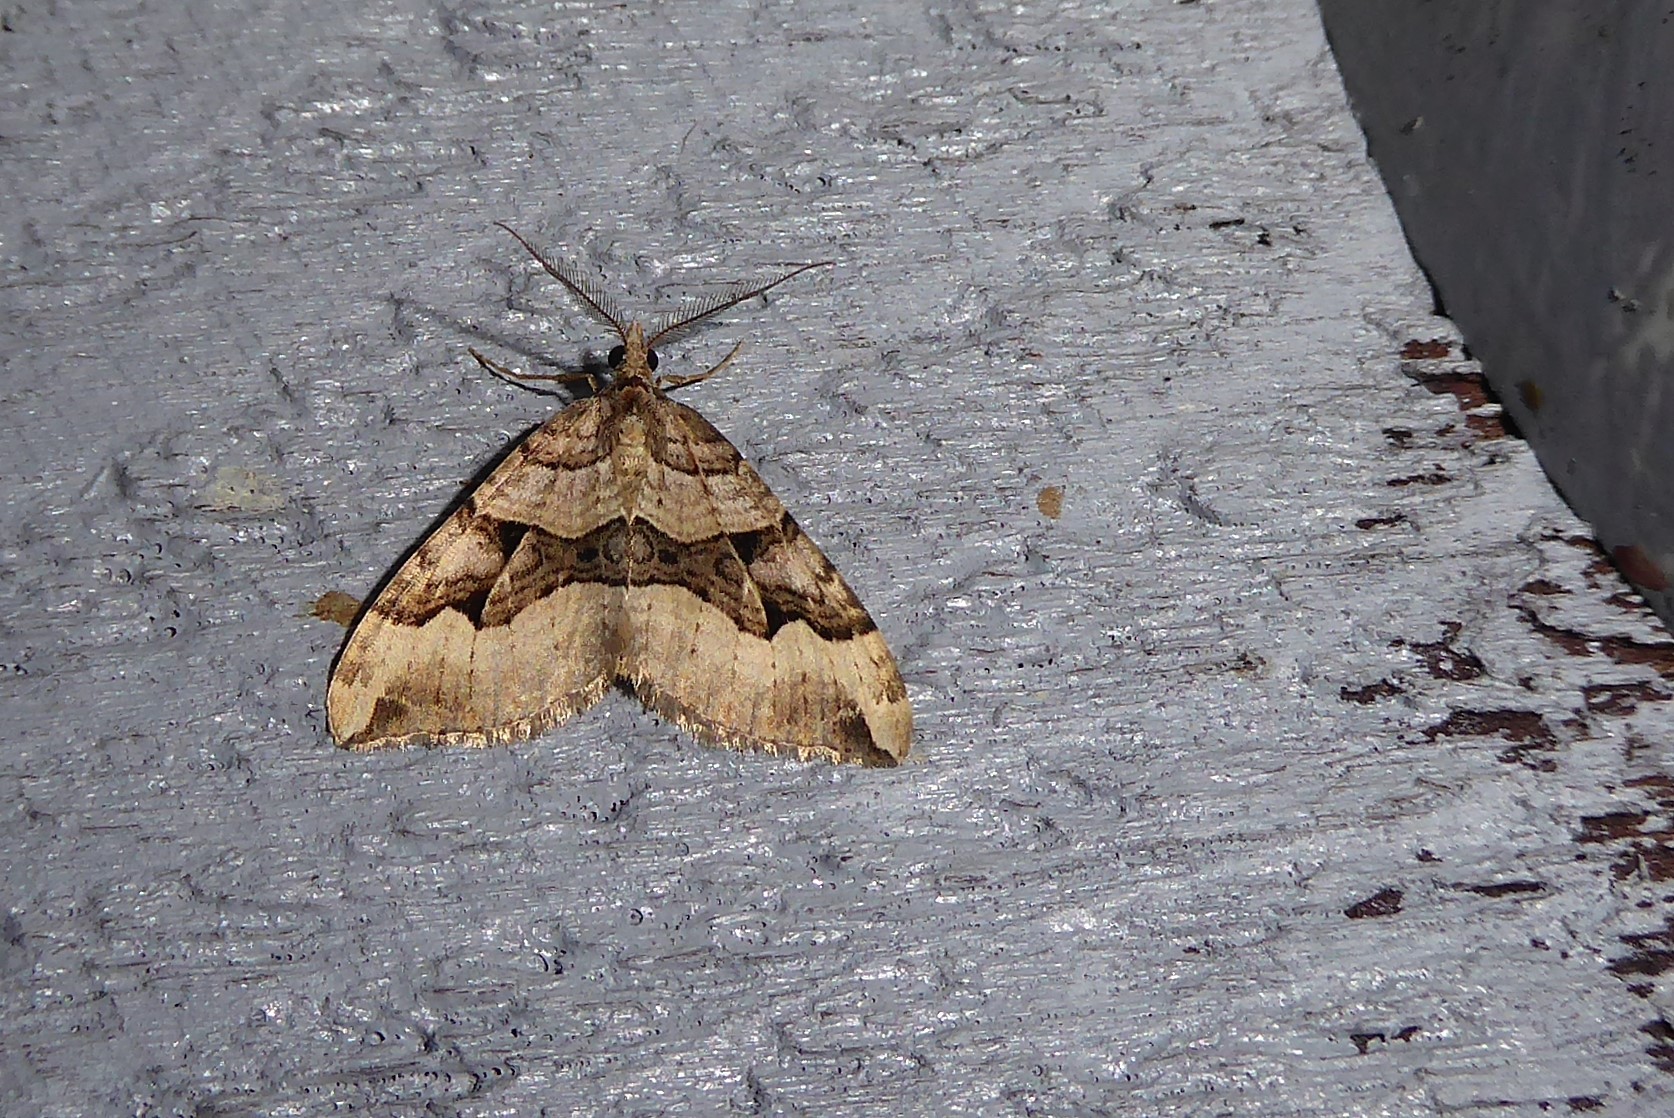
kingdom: Animalia
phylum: Arthropoda
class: Insecta
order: Lepidoptera
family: Geometridae
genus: Xanthorhoe
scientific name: Xanthorhoe semifissata
